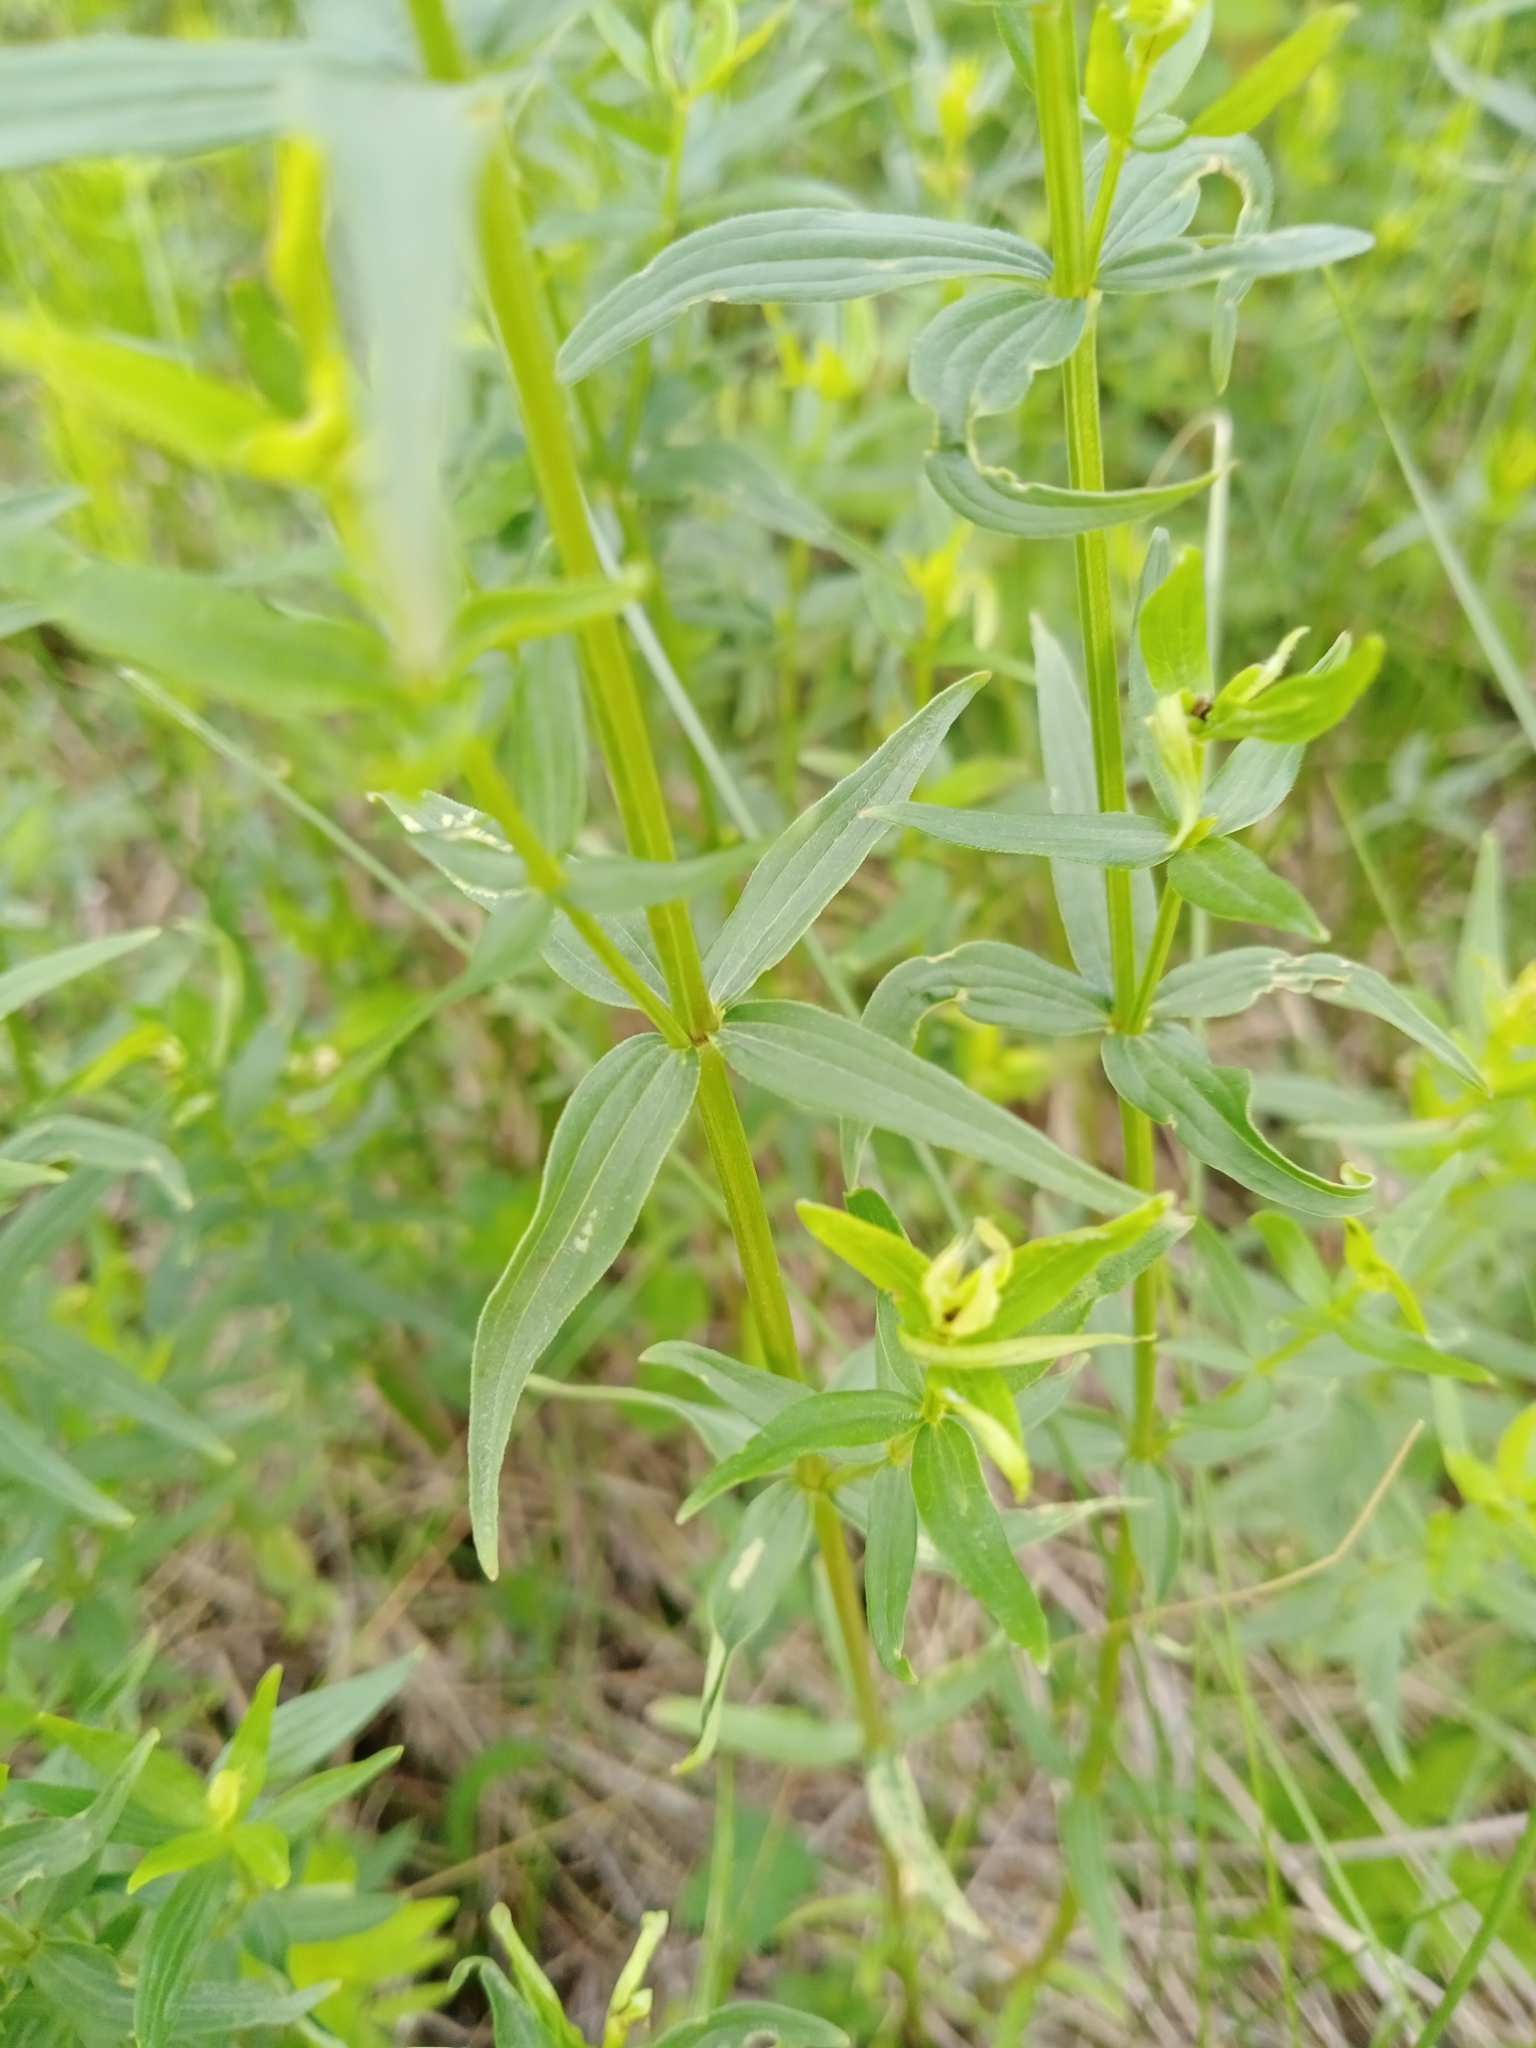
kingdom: Plantae
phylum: Tracheophyta
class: Magnoliopsida
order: Gentianales
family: Rubiaceae
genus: Galium
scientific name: Galium boreale
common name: Northern bedstraw
